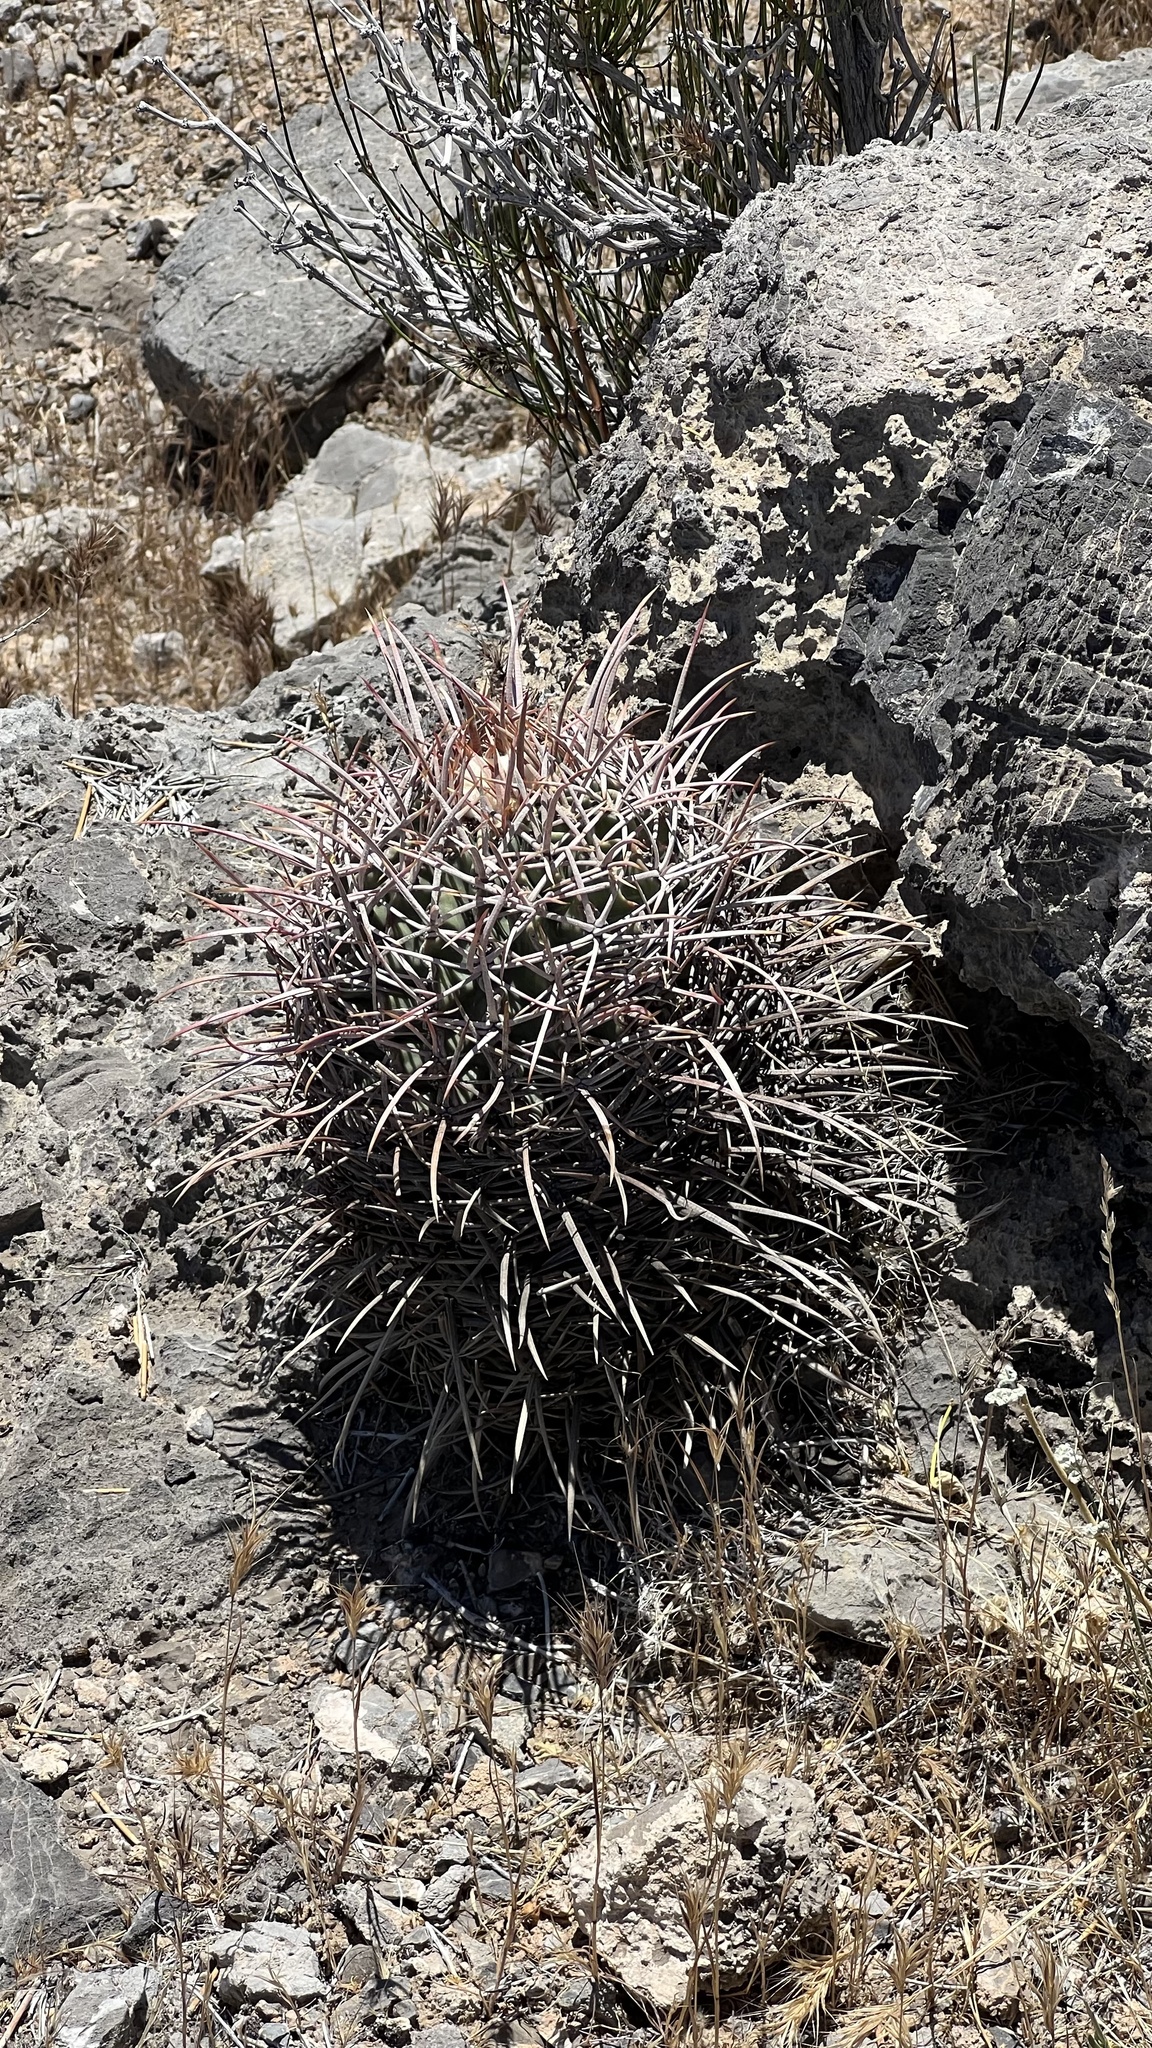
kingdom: Plantae
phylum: Tracheophyta
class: Magnoliopsida
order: Caryophyllales
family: Cactaceae
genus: Echinocactus
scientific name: Echinocactus polycephalus
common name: Cottontop cactus
